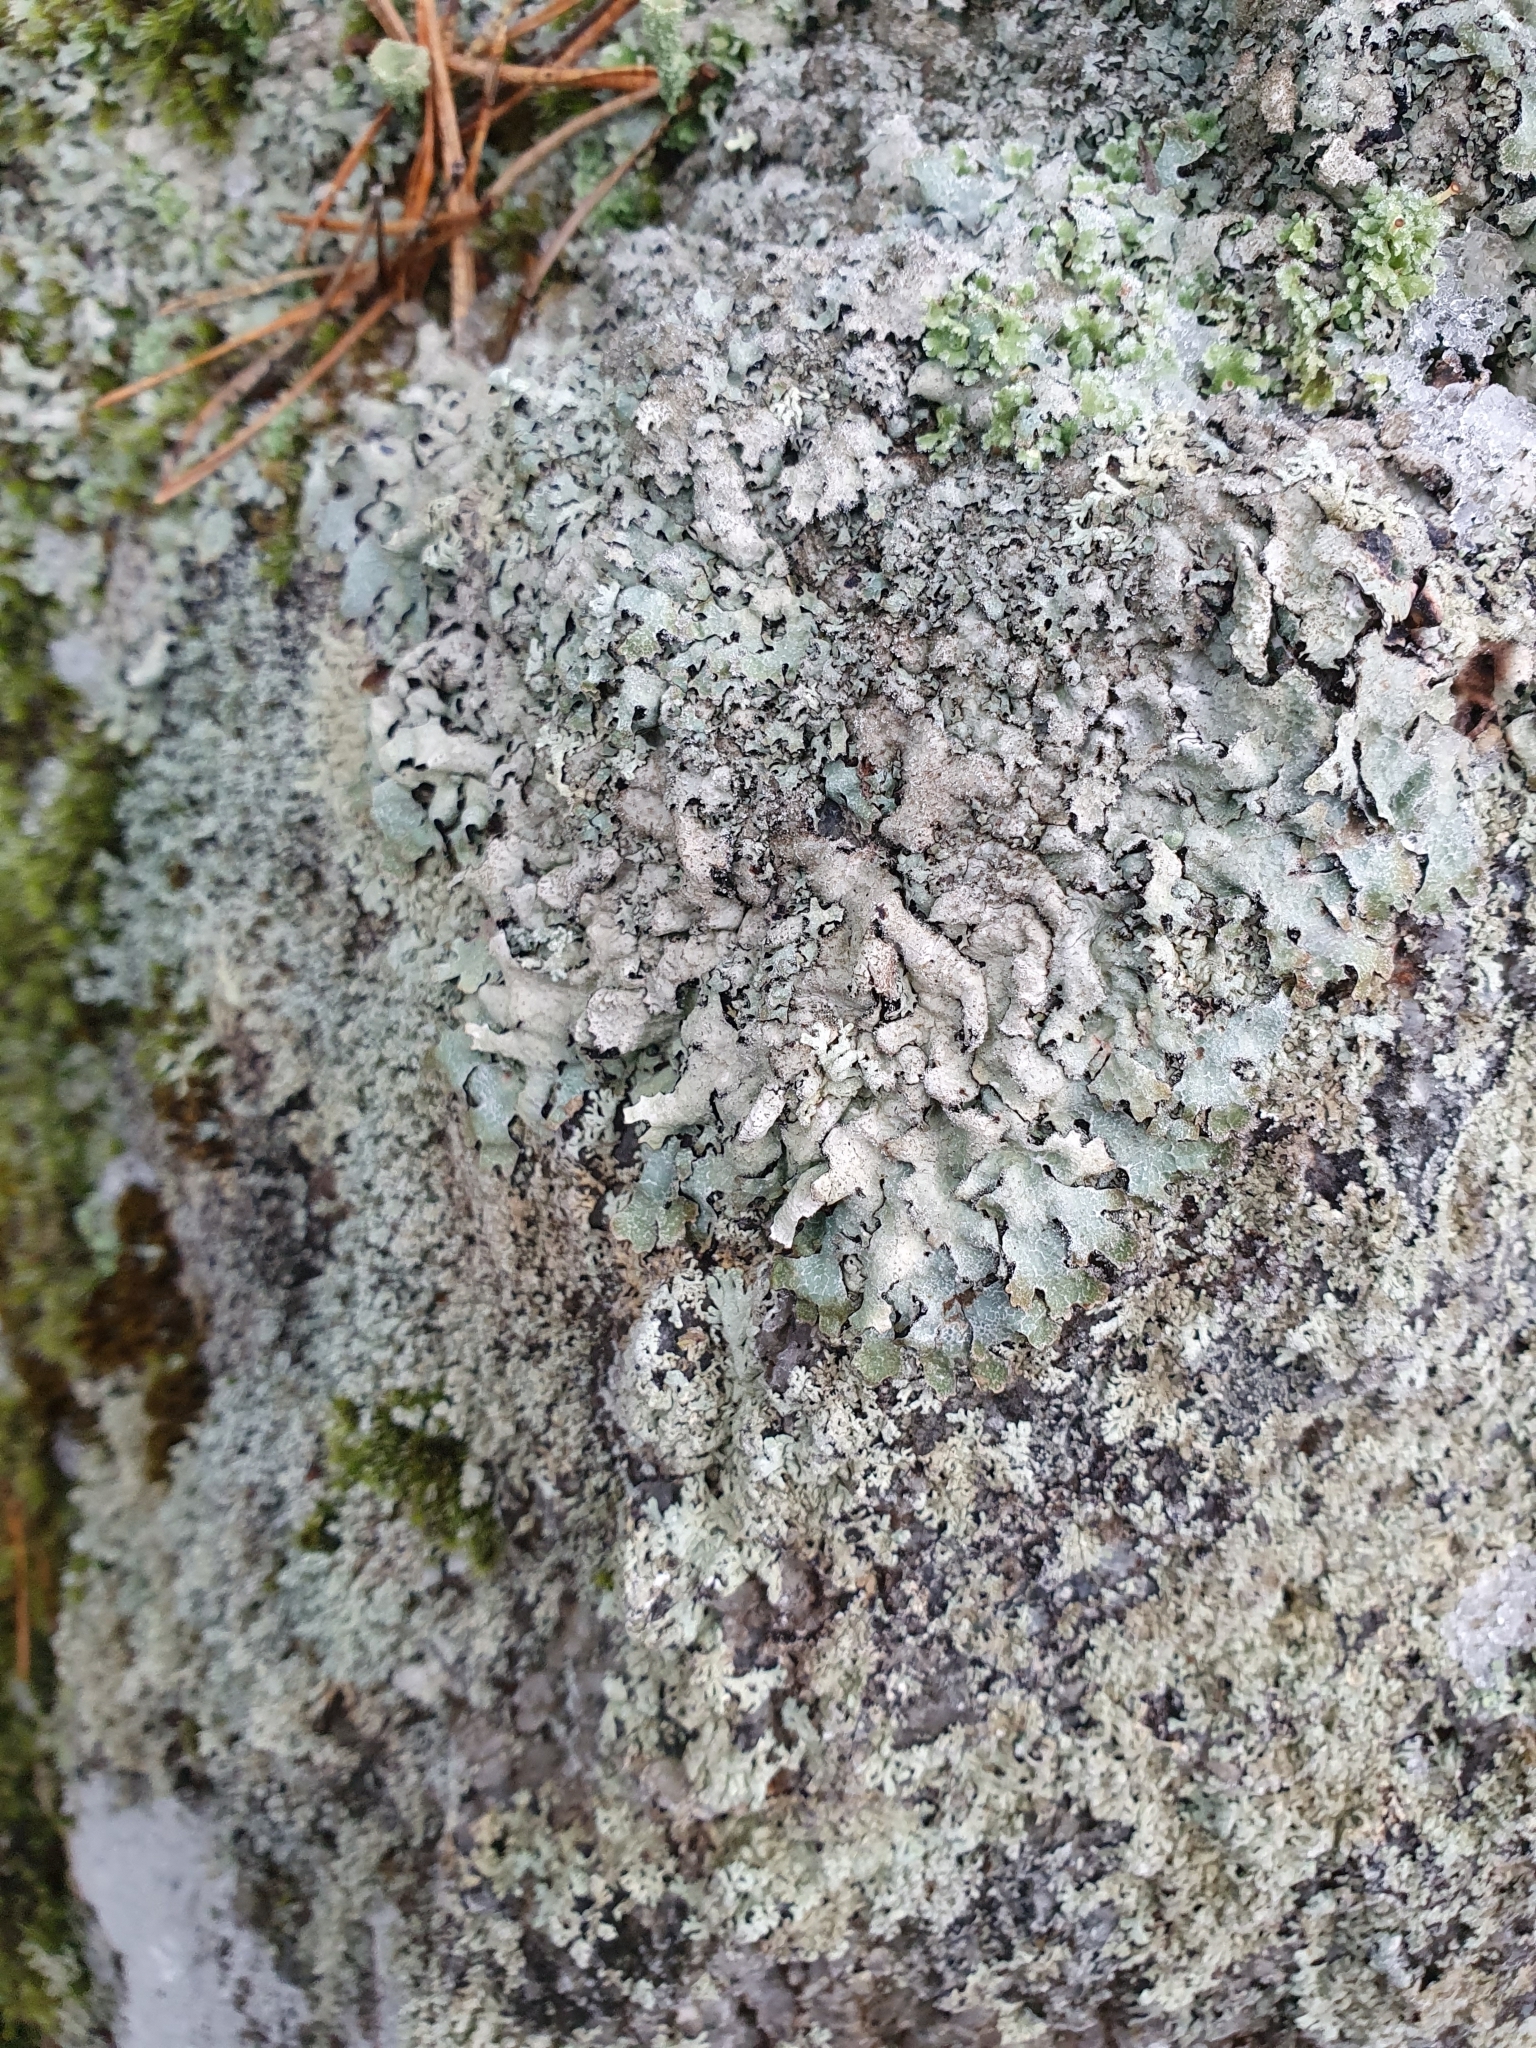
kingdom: Fungi
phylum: Ascomycota
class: Lecanoromycetes
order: Lecanorales
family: Parmeliaceae
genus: Parmelia
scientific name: Parmelia saxatilis
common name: Salted shield lichen
